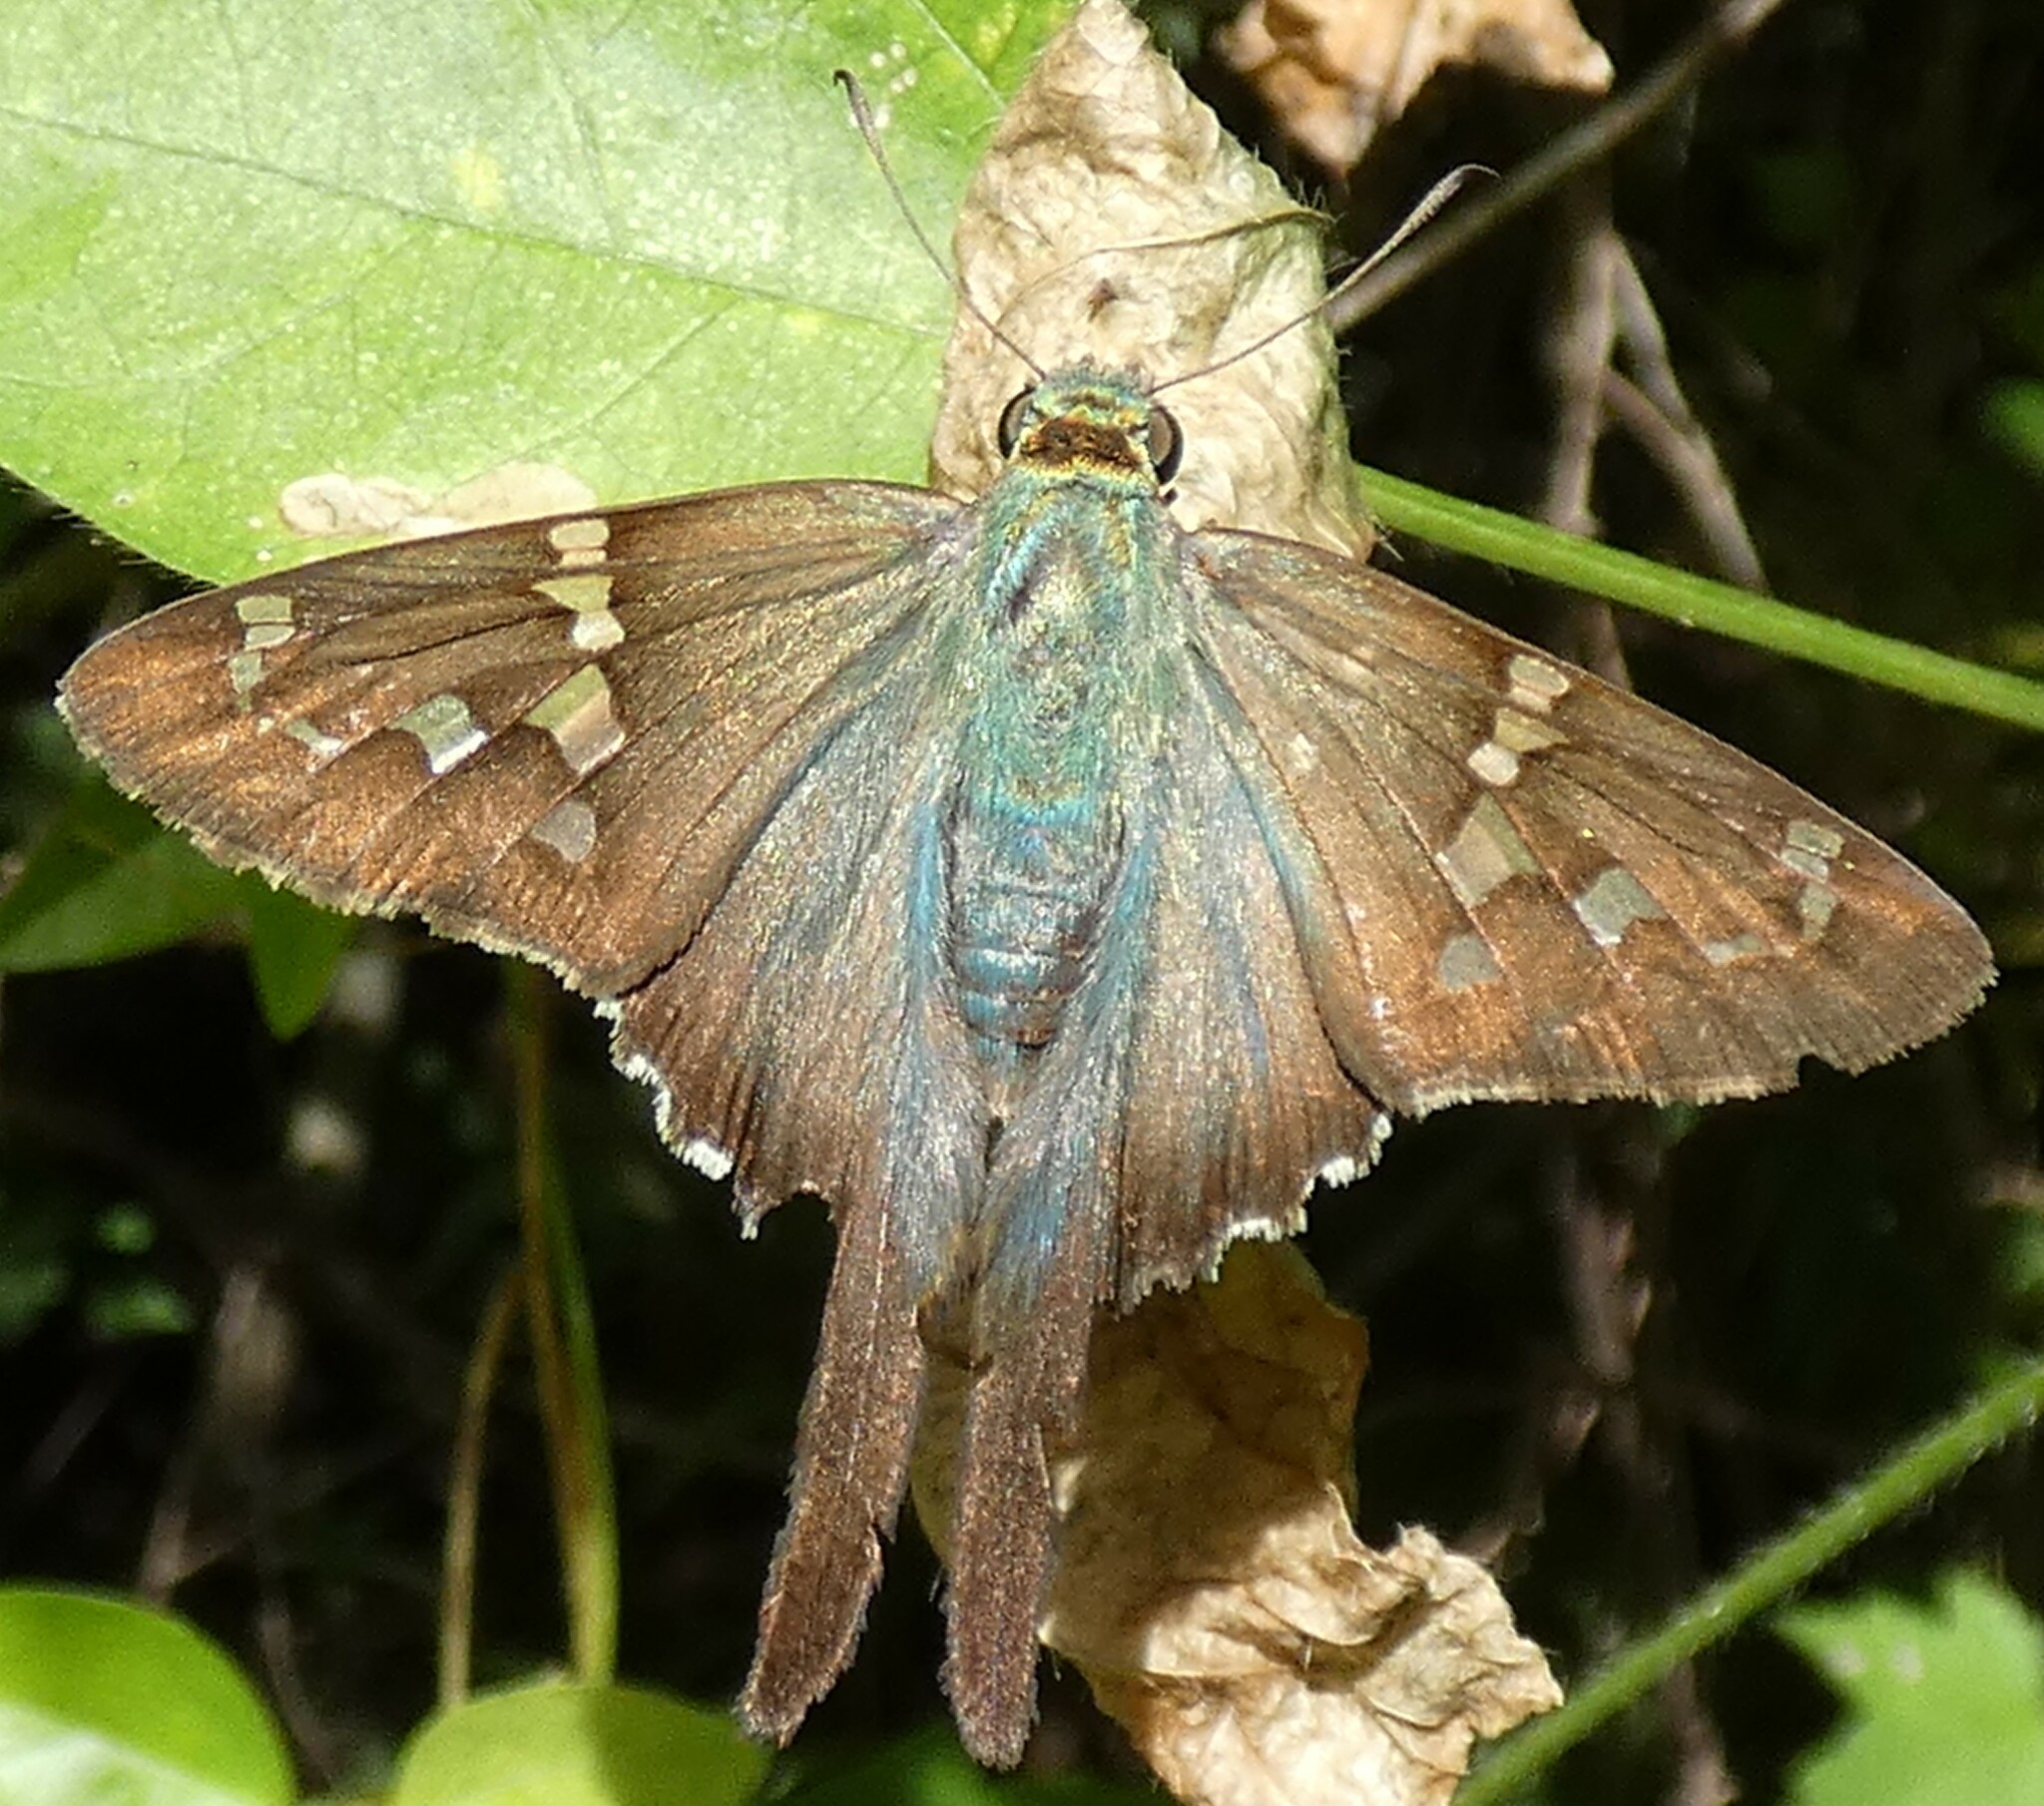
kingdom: Animalia
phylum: Arthropoda
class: Insecta
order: Lepidoptera
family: Hesperiidae
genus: Urbanus
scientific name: Urbanus proteus
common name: Long-tailed skipper
